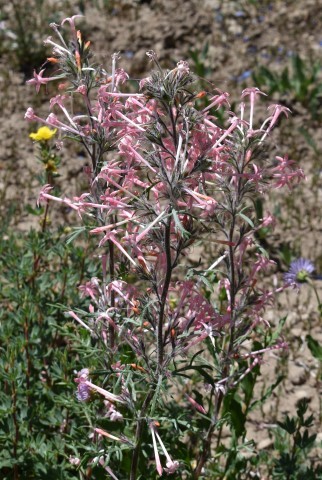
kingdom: Plantae
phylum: Tracheophyta
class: Magnoliopsida
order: Ericales
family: Polemoniaceae
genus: Ipomopsis
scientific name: Ipomopsis tenuituba
